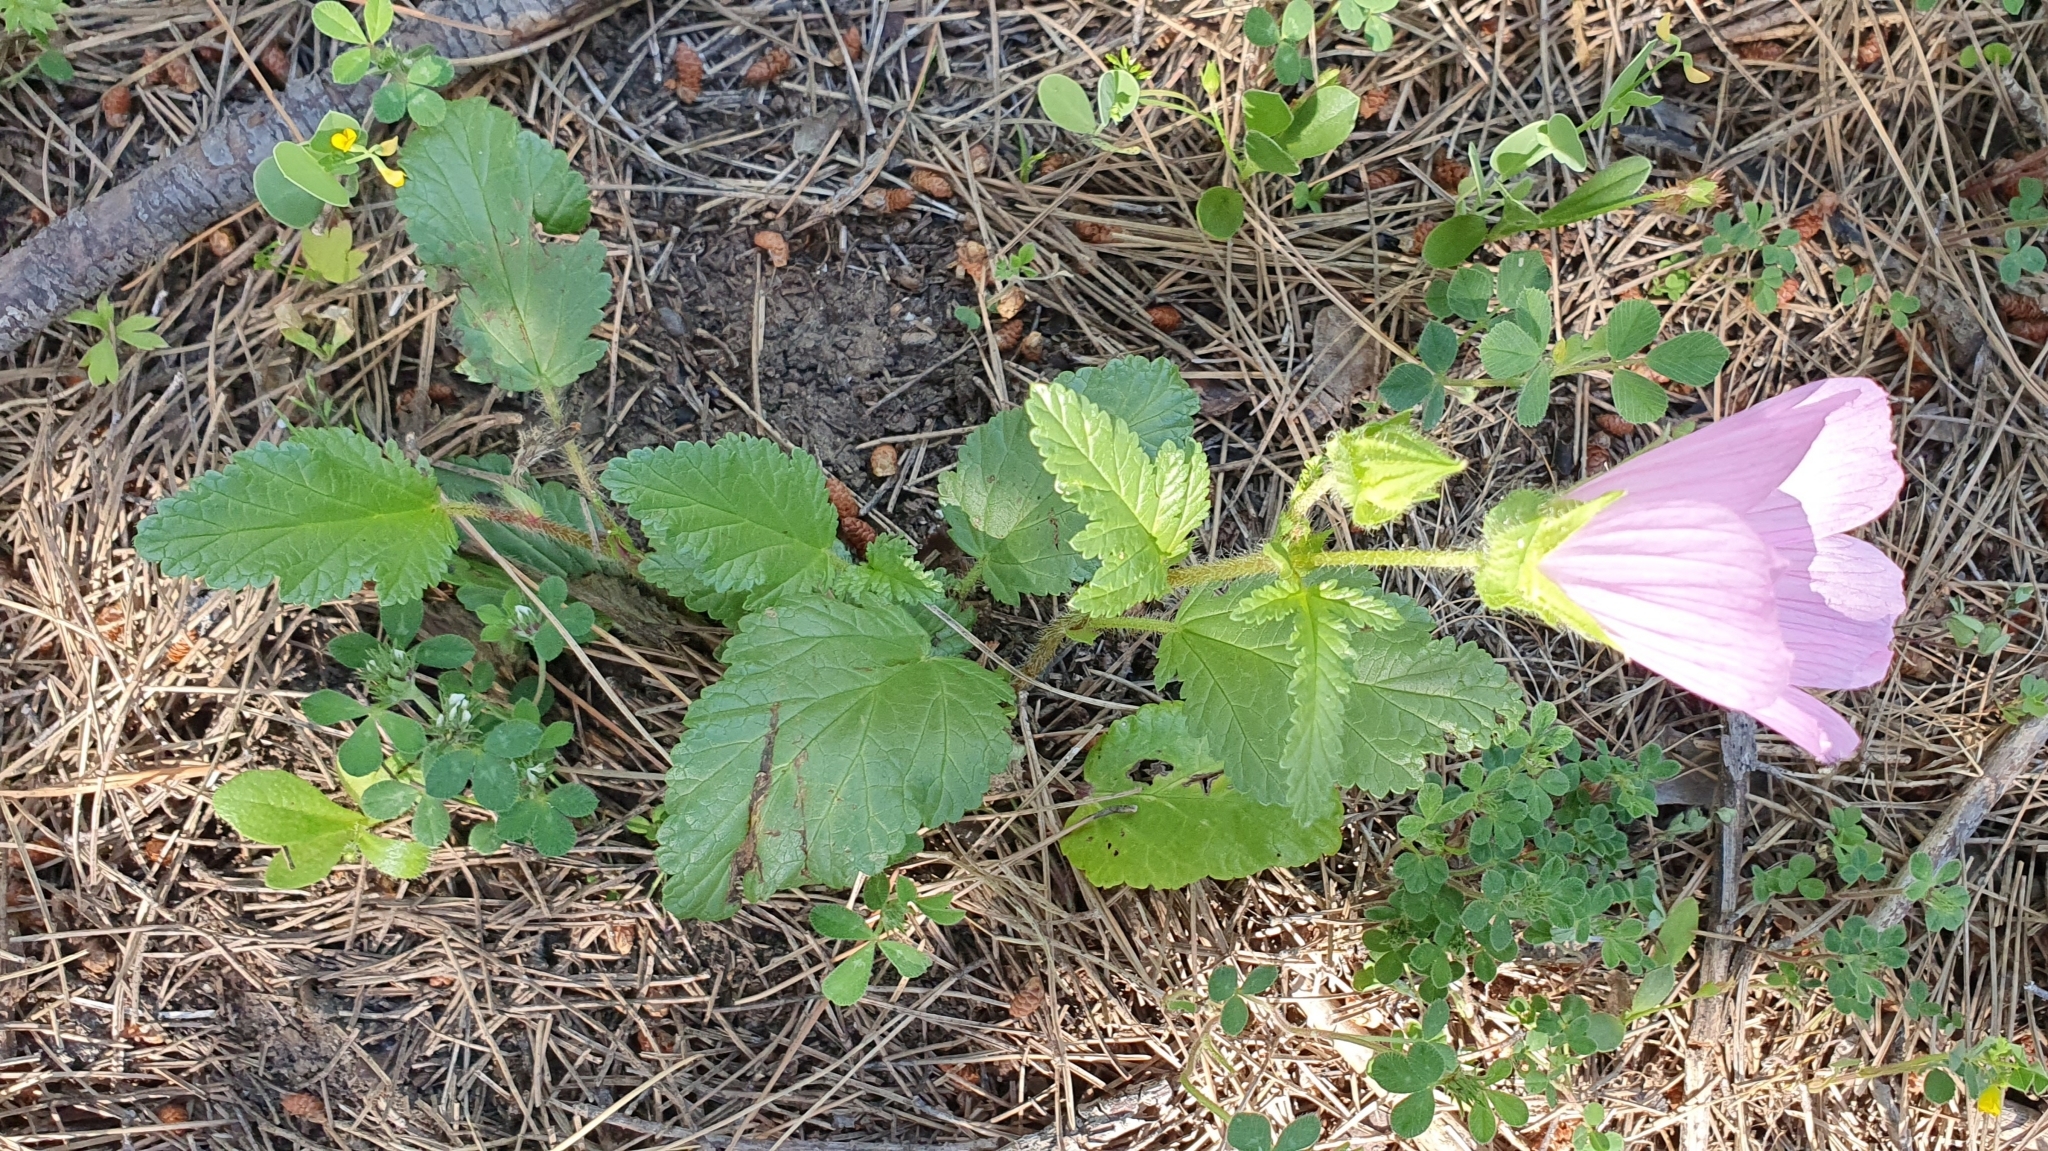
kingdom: Plantae
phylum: Tracheophyta
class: Magnoliopsida
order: Malvales
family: Malvaceae
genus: Malope
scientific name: Malope malacoides
